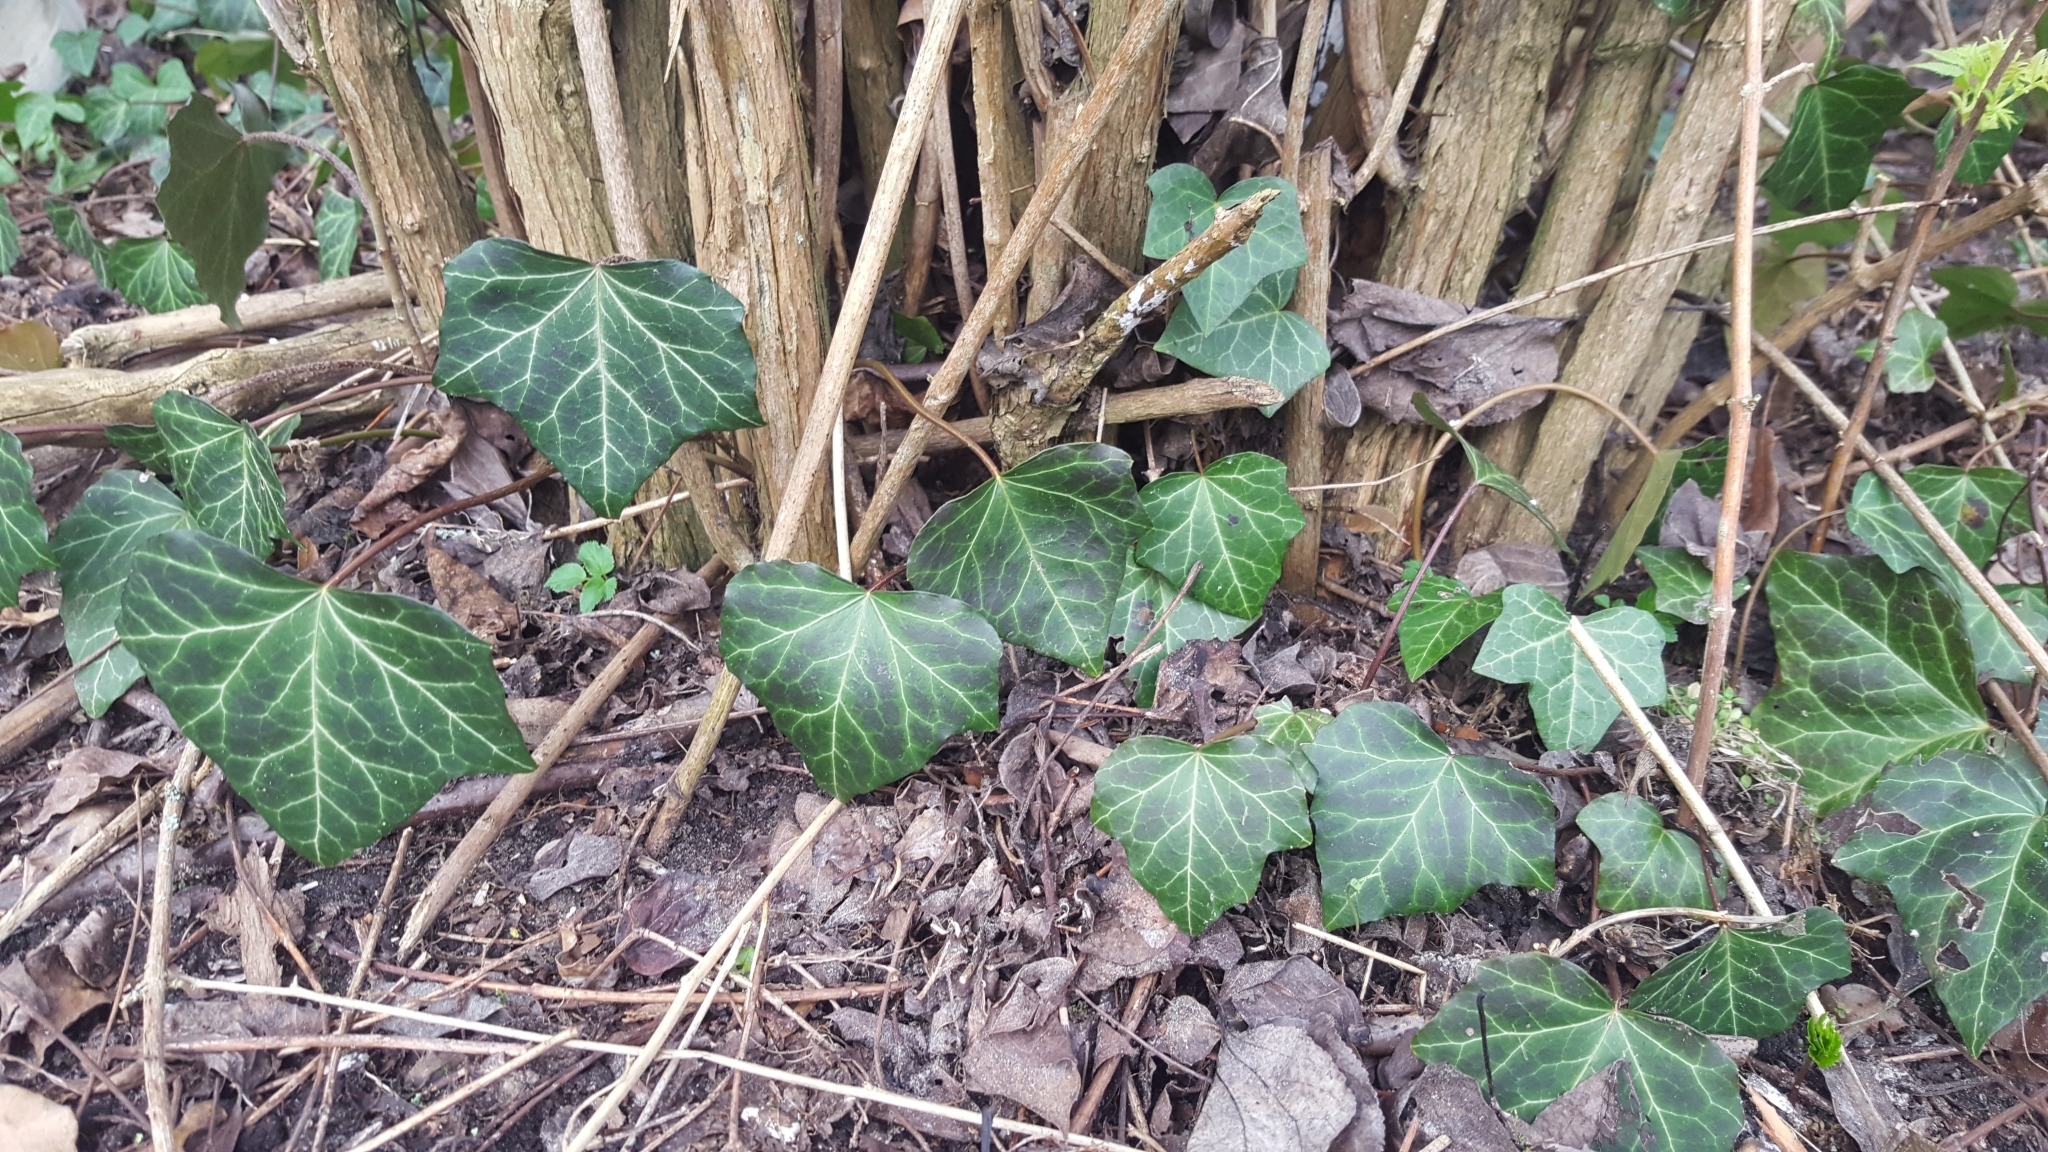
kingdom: Plantae
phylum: Tracheophyta
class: Magnoliopsida
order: Apiales
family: Araliaceae
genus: Hedera
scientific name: Hedera helix
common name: Ivy
